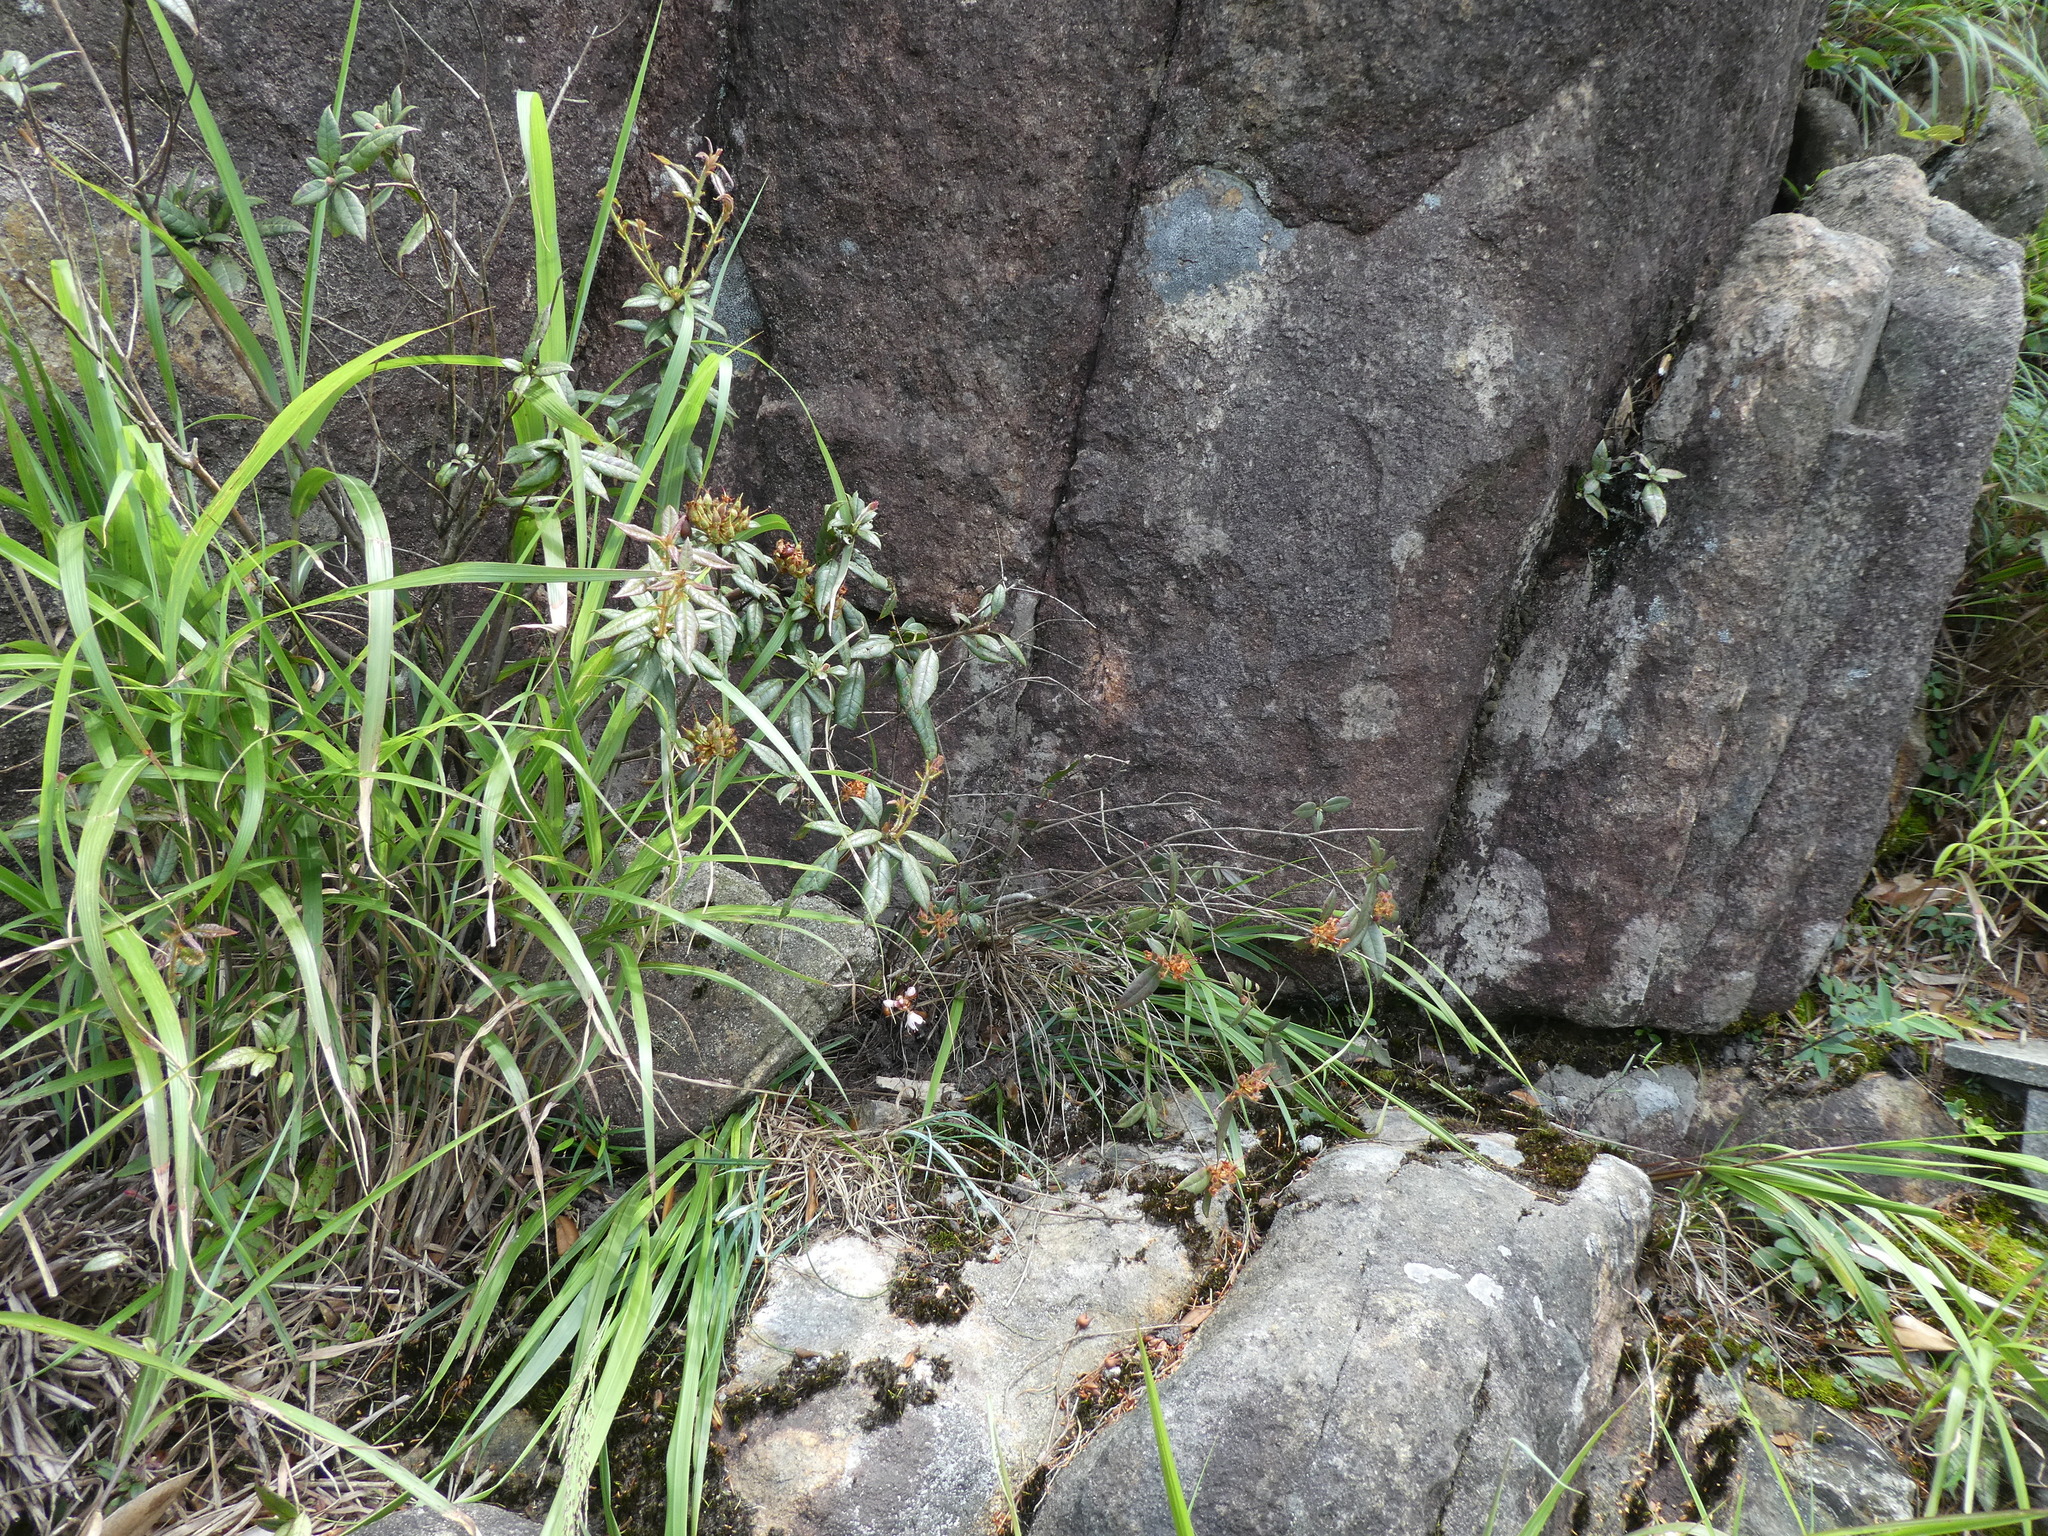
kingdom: Plantae
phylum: Tracheophyta
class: Magnoliopsida
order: Ericales
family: Ericaceae
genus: Rhododendron
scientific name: Rhododendron rhuyuenense
